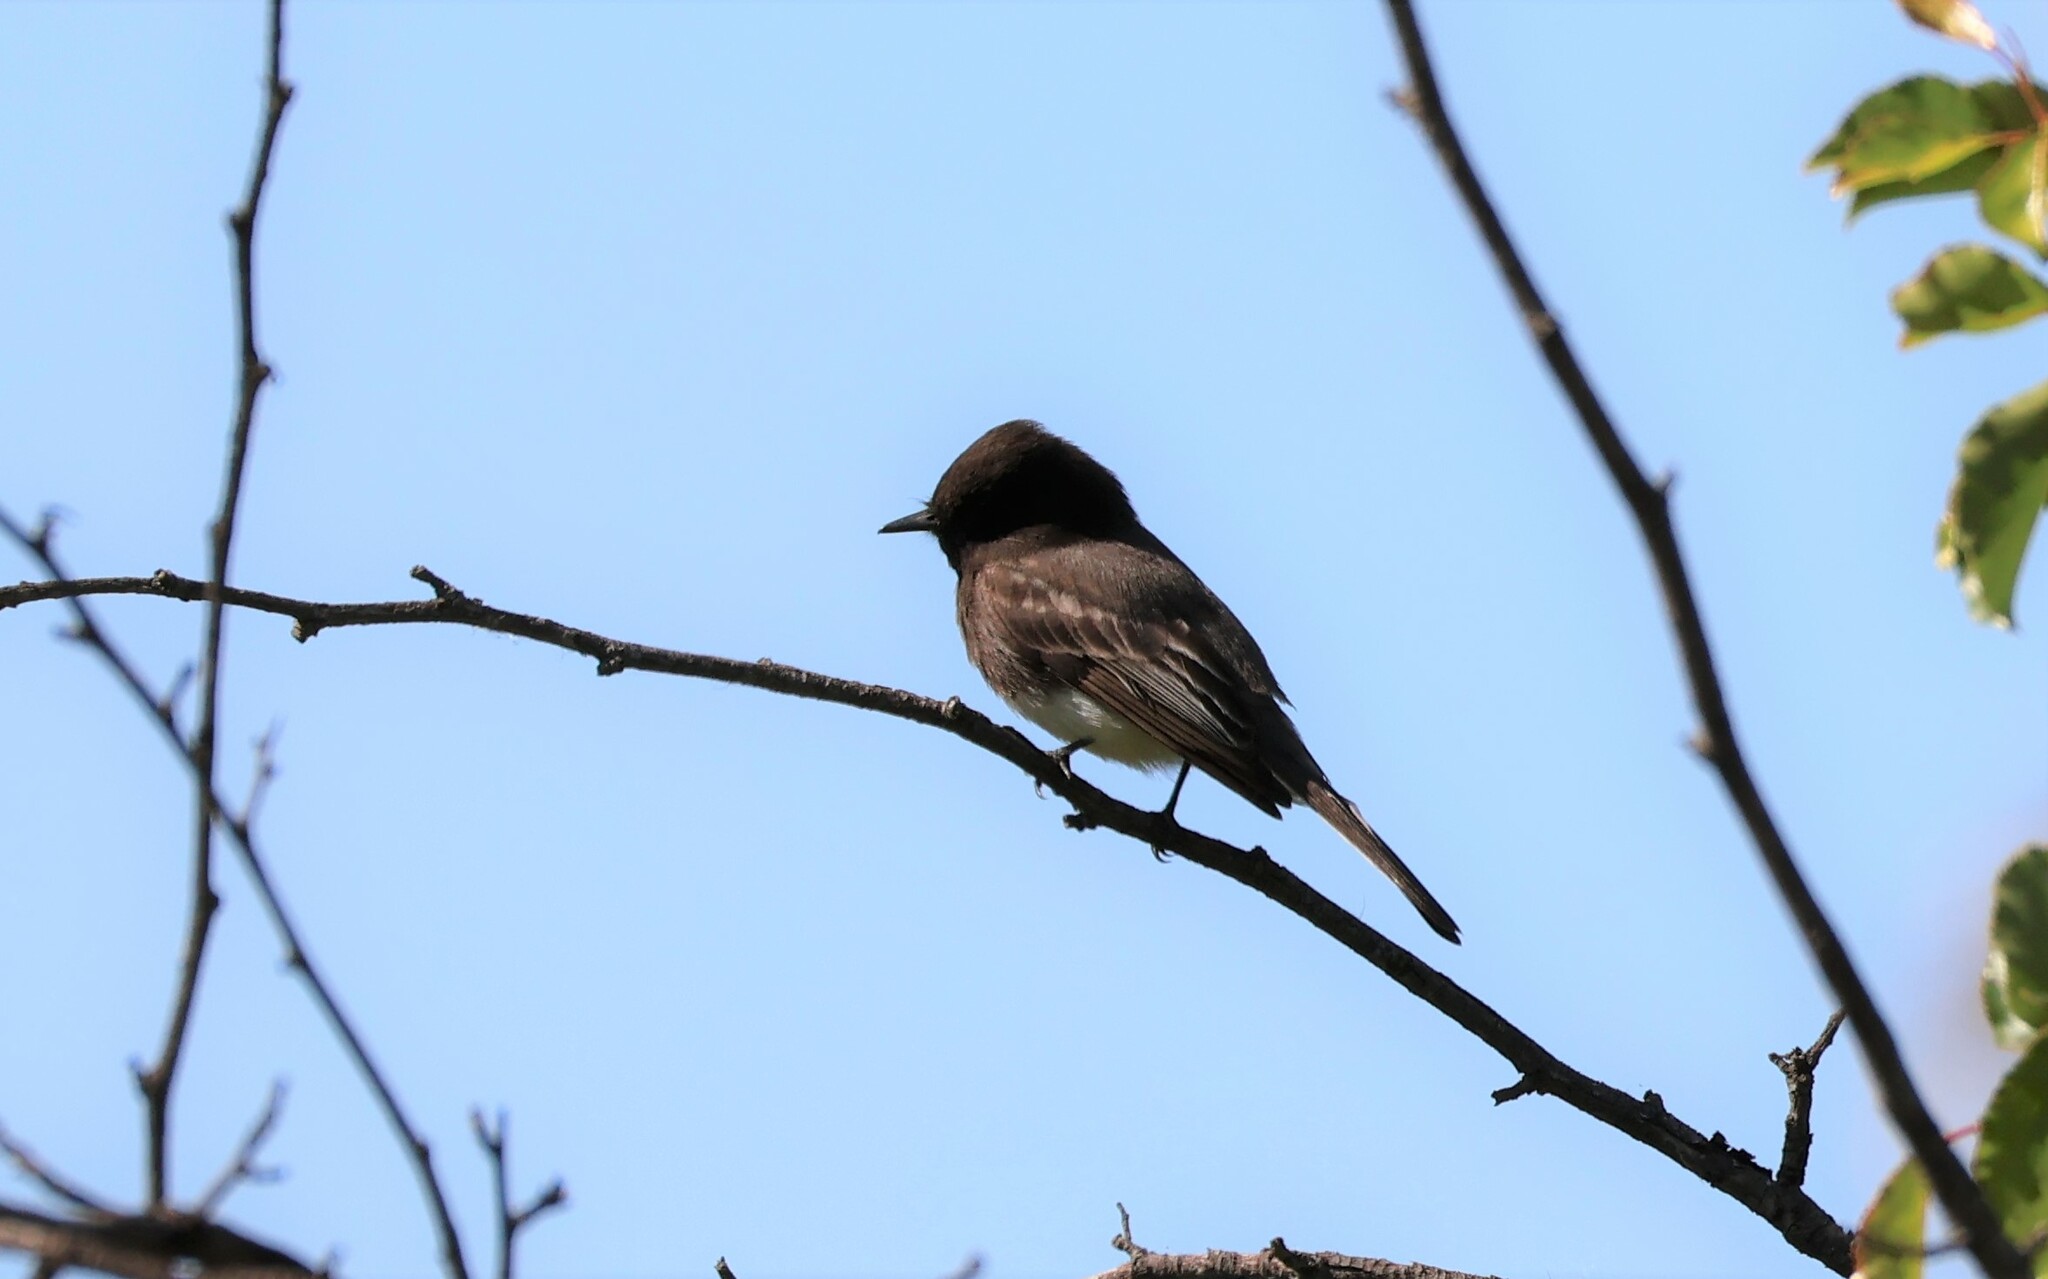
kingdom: Animalia
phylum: Chordata
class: Aves
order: Passeriformes
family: Tyrannidae
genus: Sayornis
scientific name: Sayornis nigricans
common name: Black phoebe
